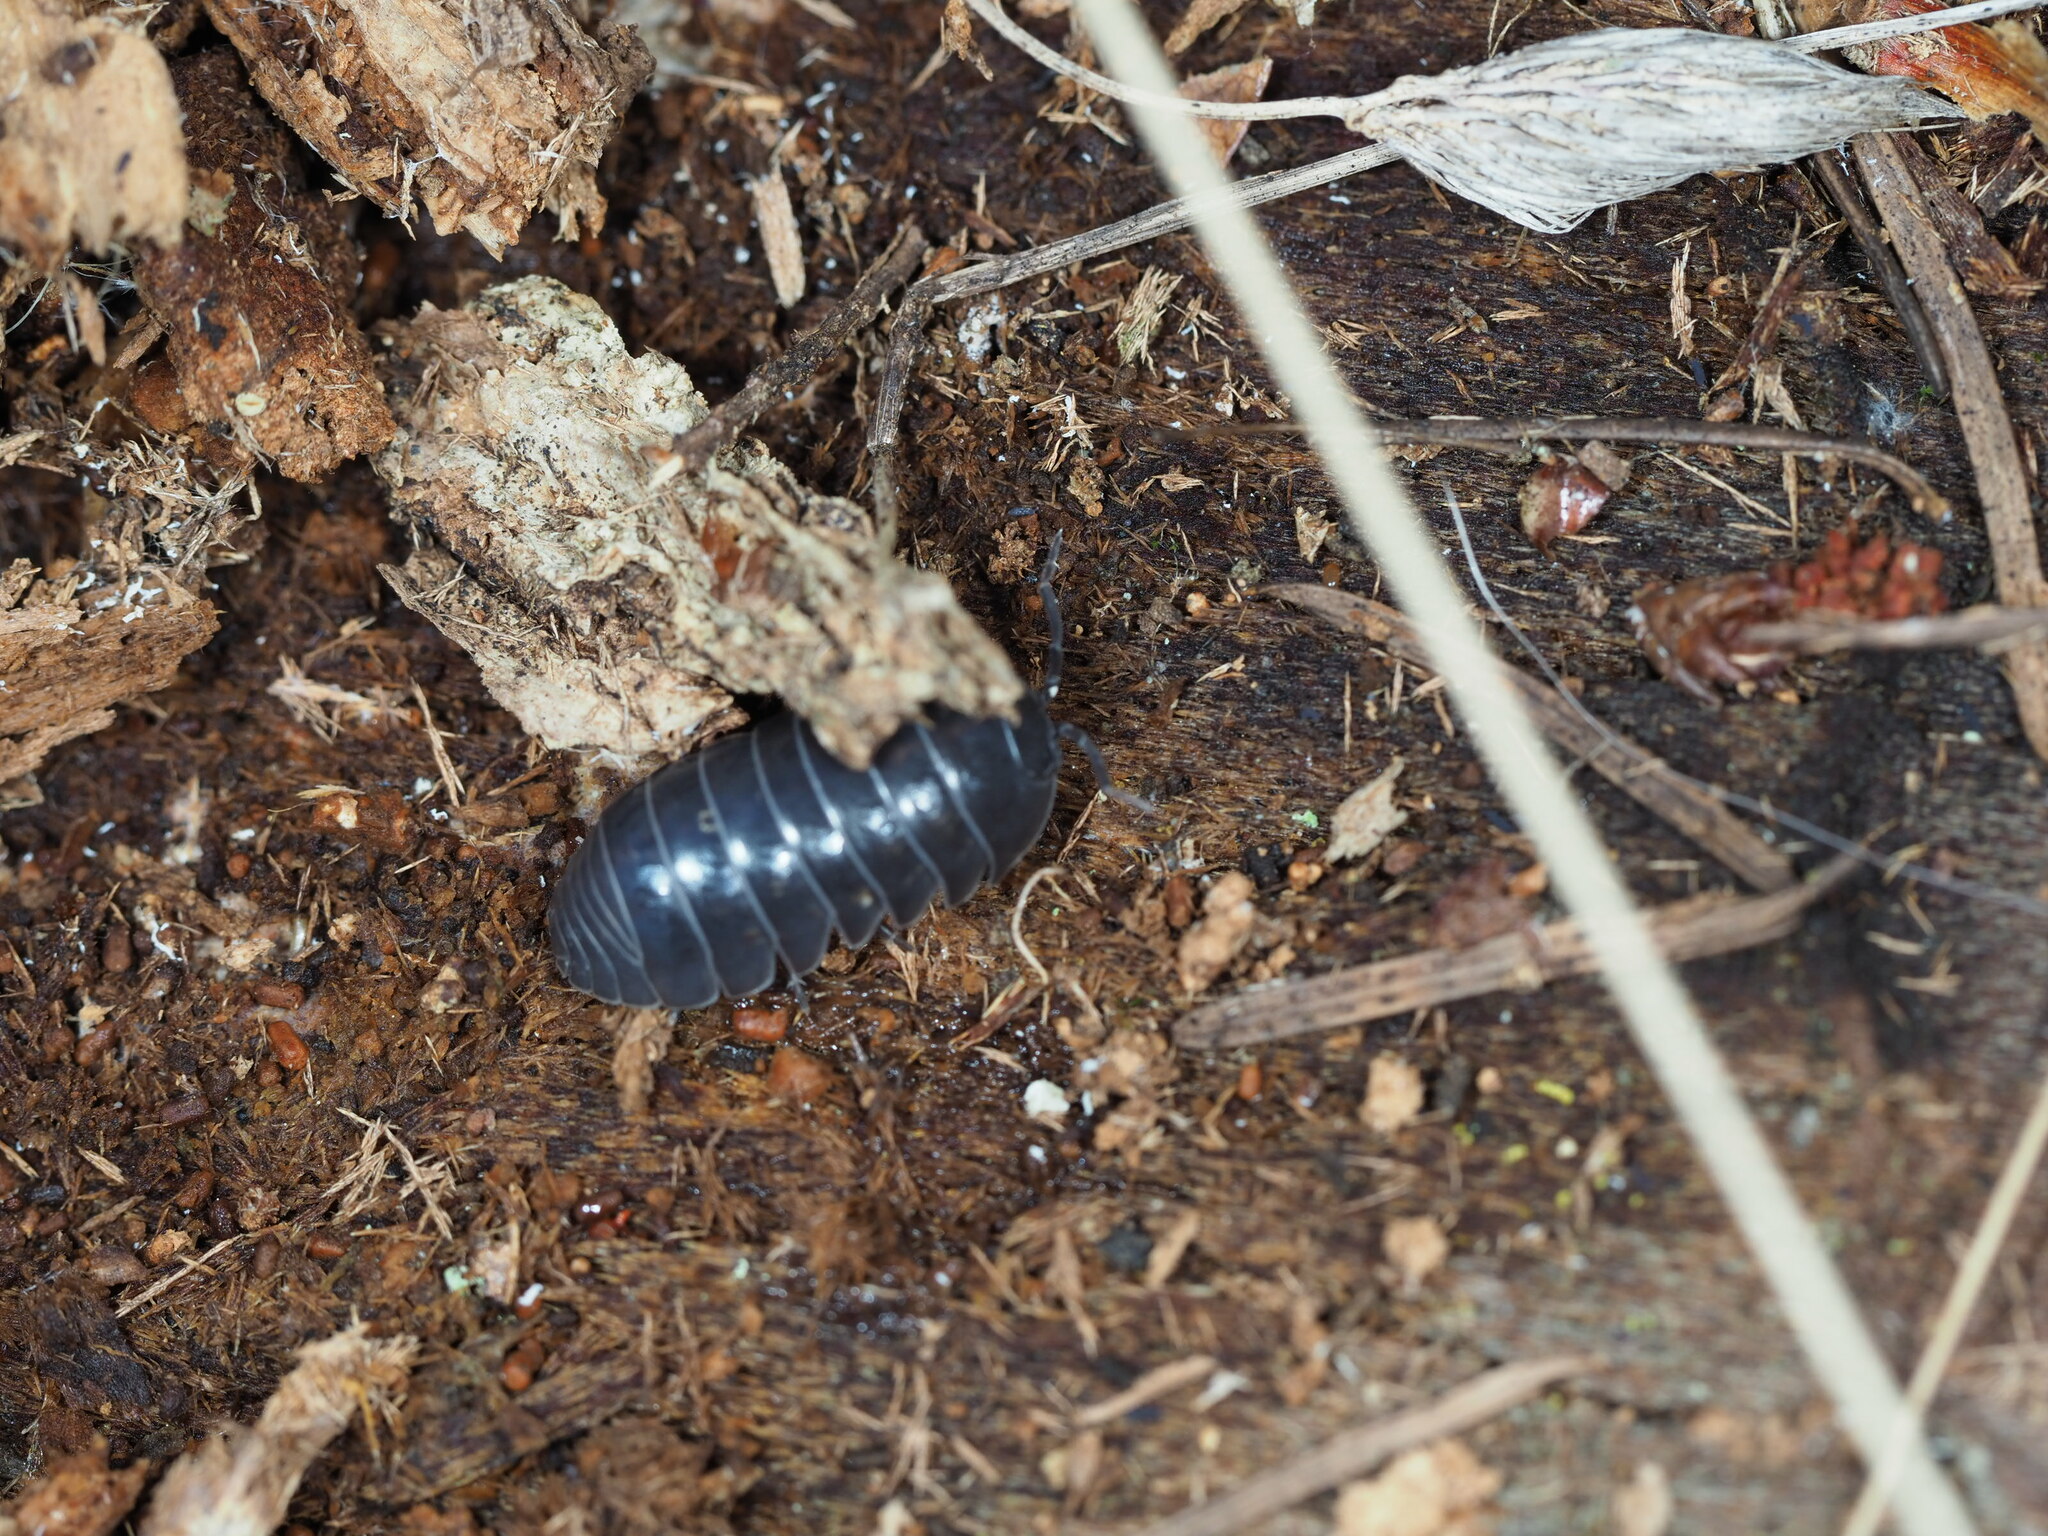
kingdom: Animalia
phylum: Arthropoda
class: Malacostraca
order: Isopoda
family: Armadillidiidae
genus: Armadillidium
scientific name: Armadillidium vulgare
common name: Common pill woodlouse
